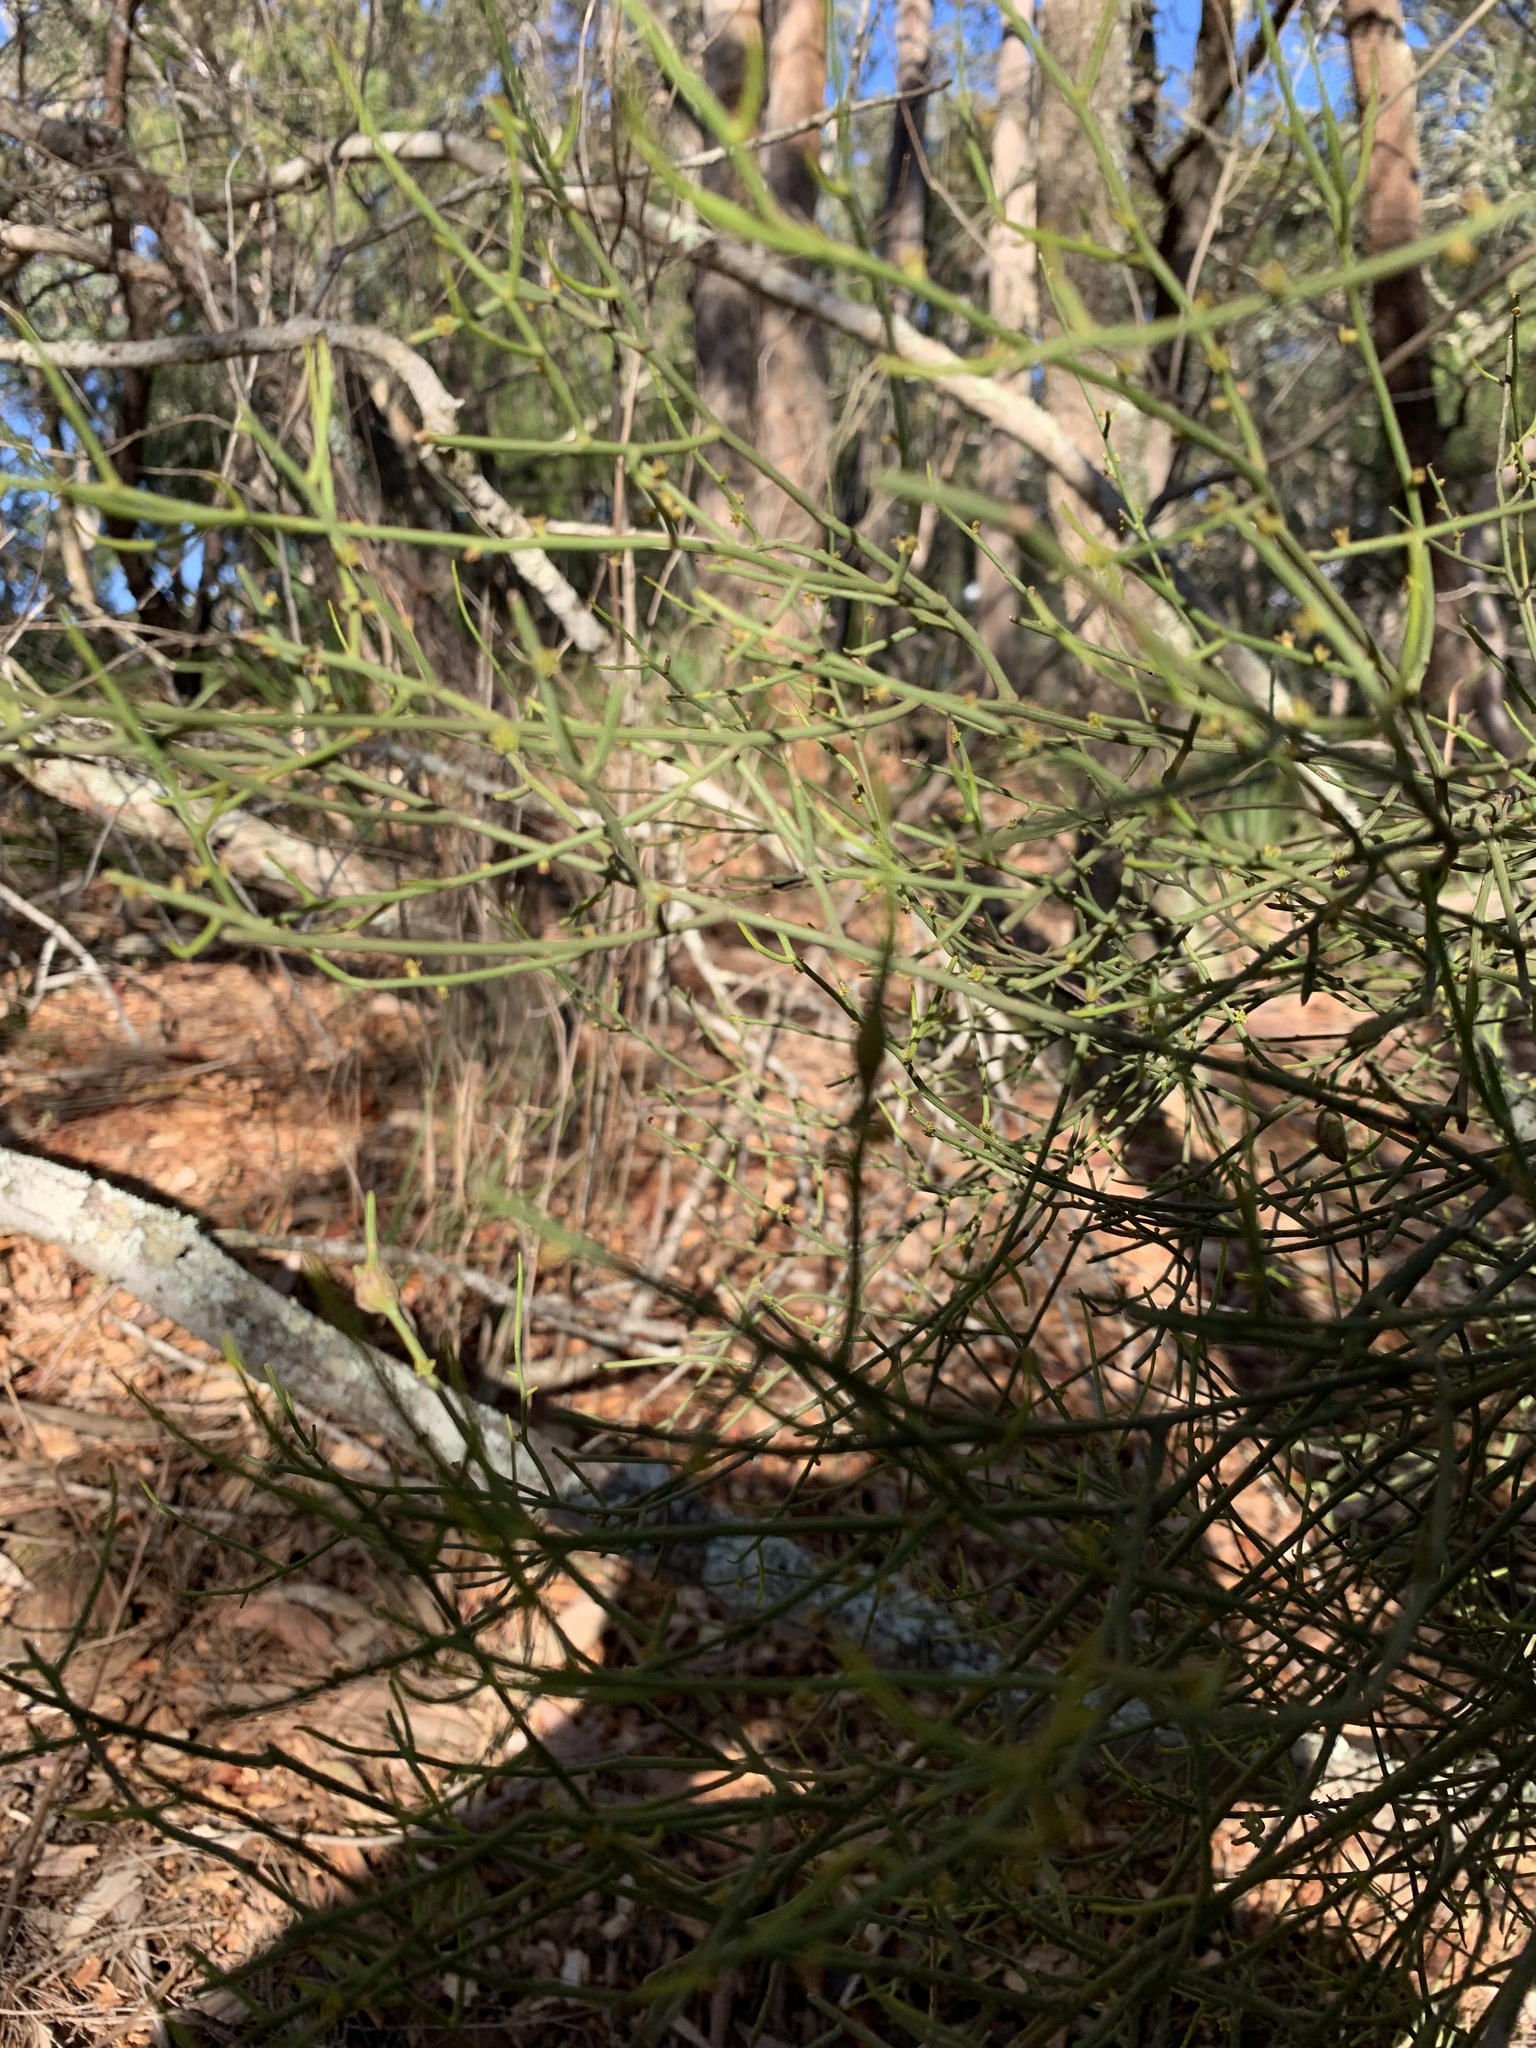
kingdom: Plantae
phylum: Tracheophyta
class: Magnoliopsida
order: Santalales
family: Santalaceae
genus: Omphacomeria
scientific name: Omphacomeria acerba
